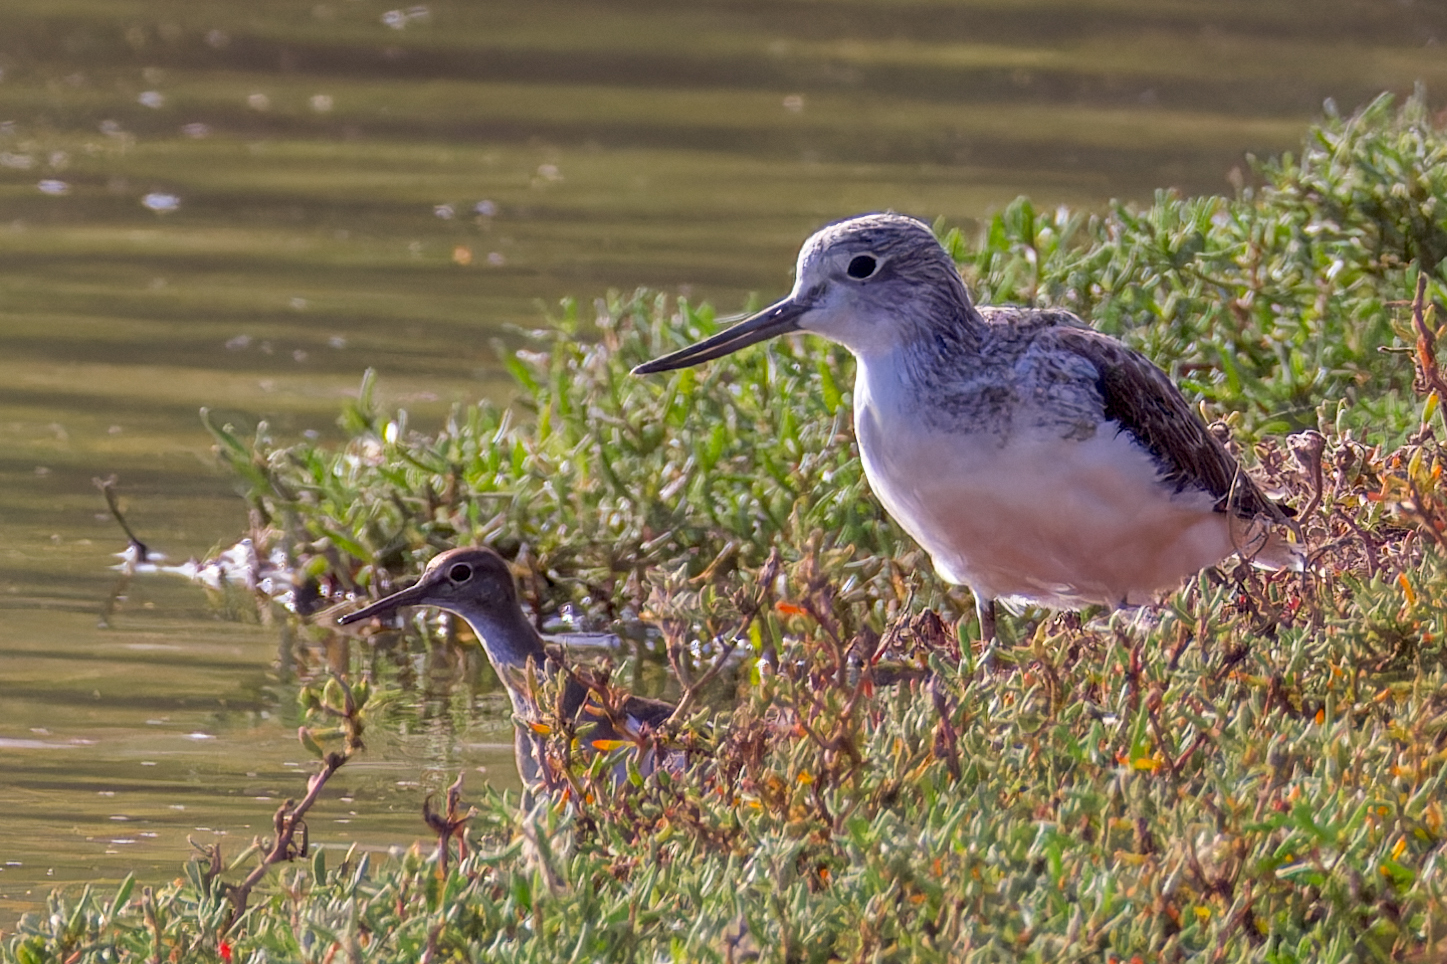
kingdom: Animalia
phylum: Chordata
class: Aves
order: Charadriiformes
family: Scolopacidae
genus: Tringa
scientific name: Tringa nebularia
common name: Common greenshank
